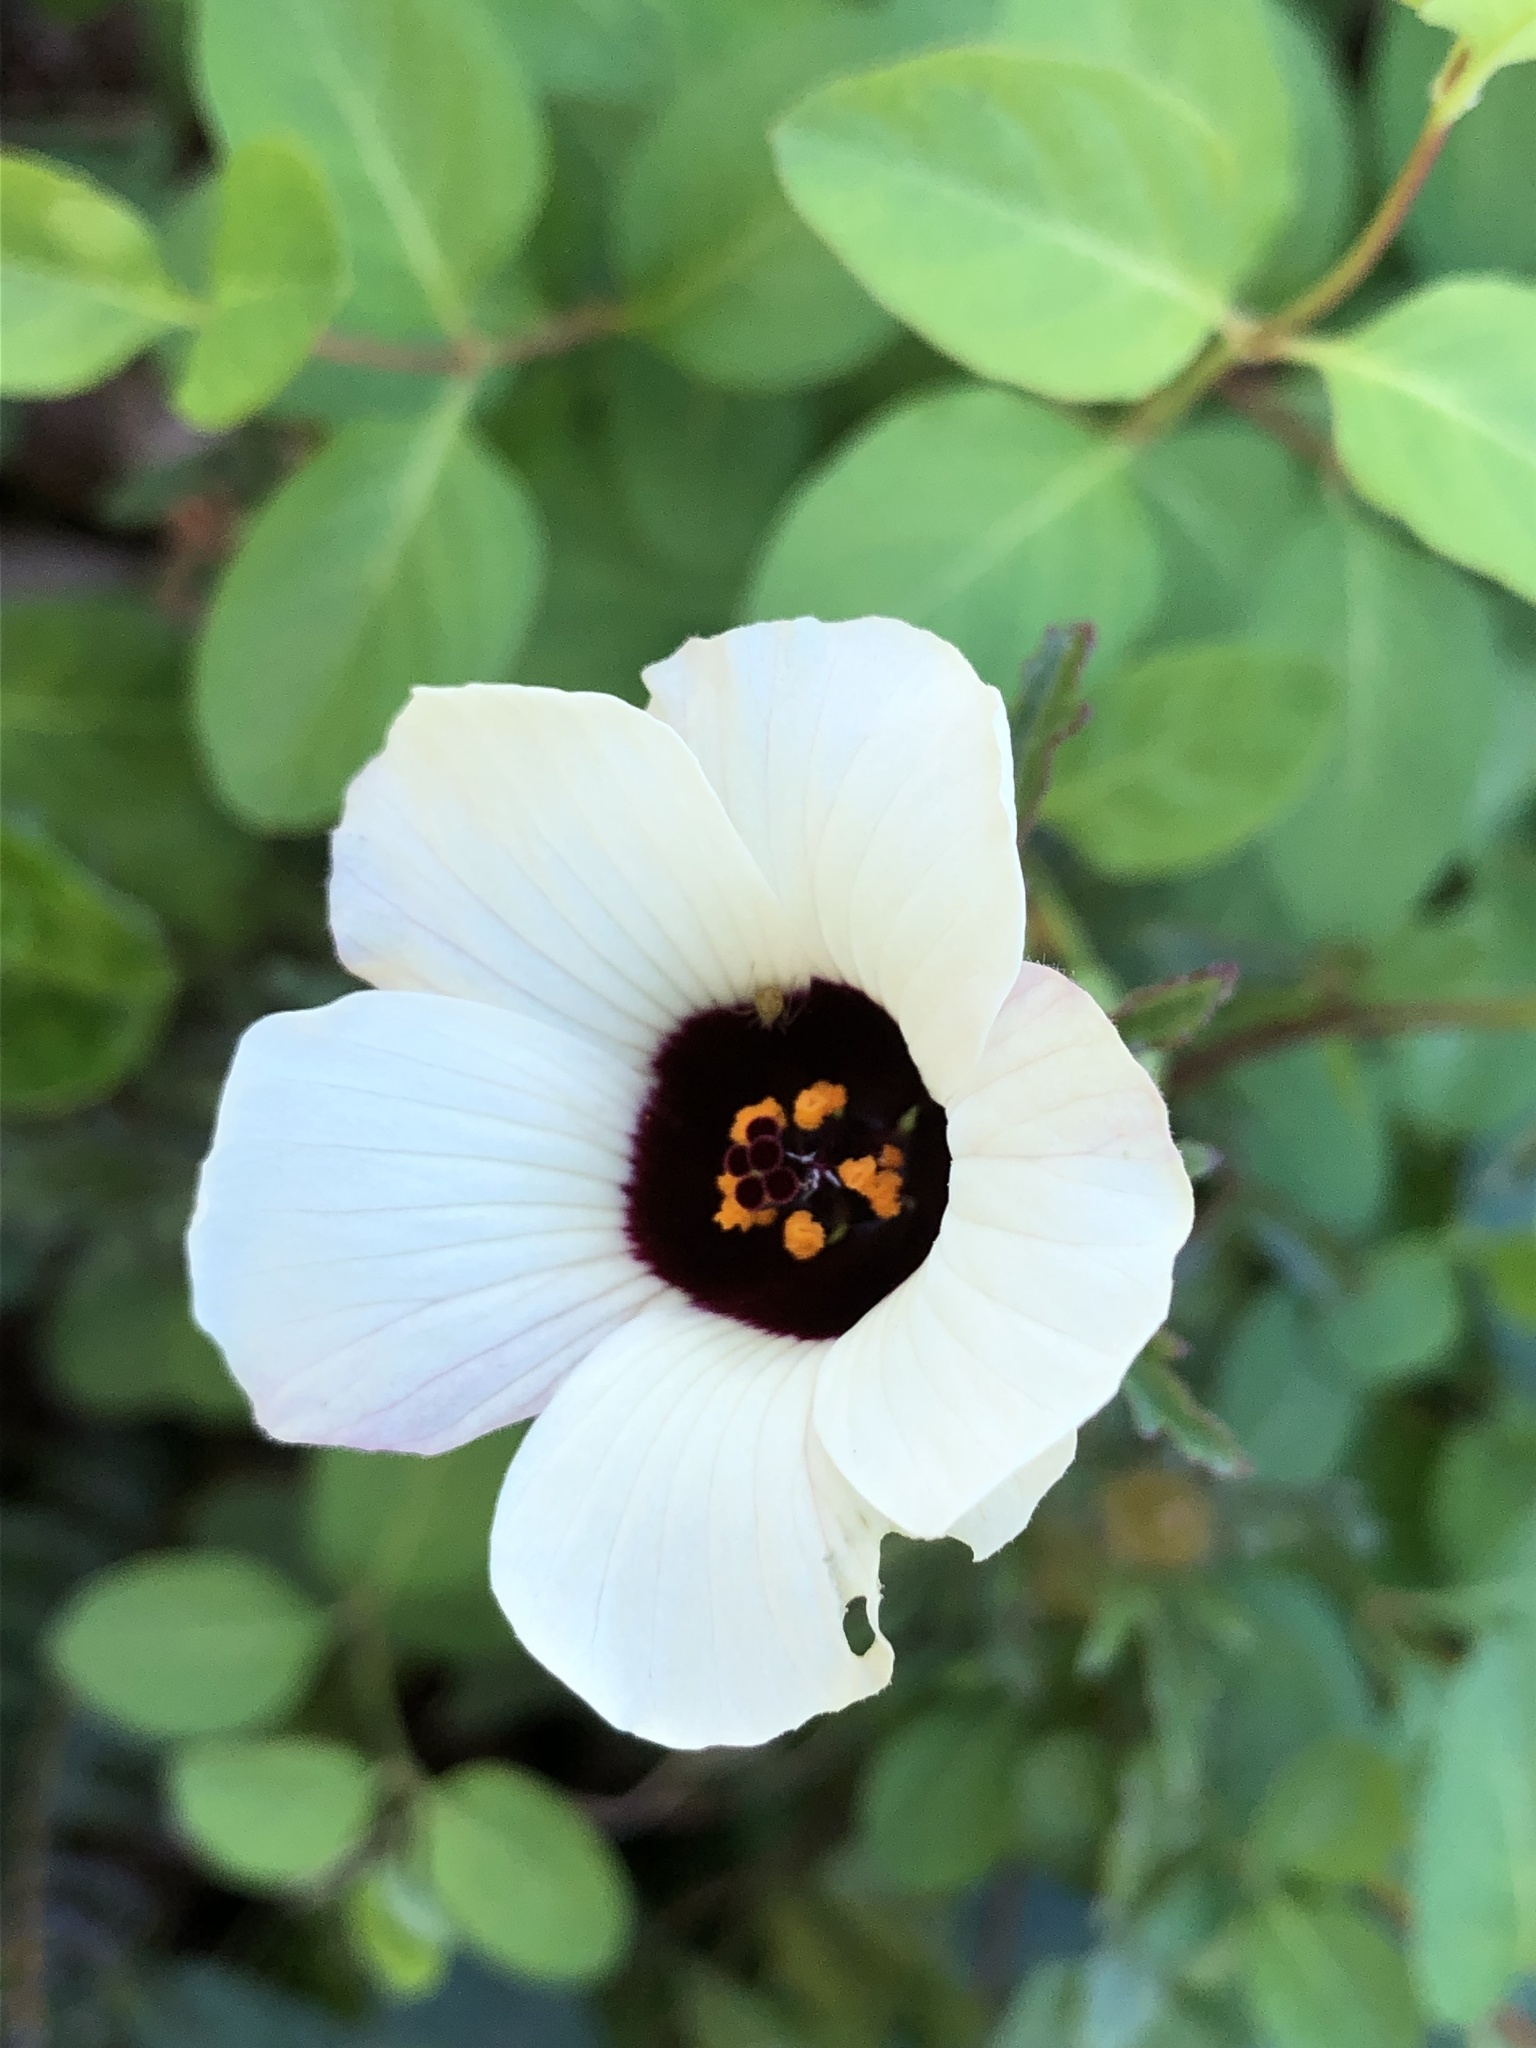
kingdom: Plantae
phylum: Tracheophyta
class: Magnoliopsida
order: Malvales
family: Malvaceae
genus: Hibiscus
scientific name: Hibiscus trionum
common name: Bladder ketmia
